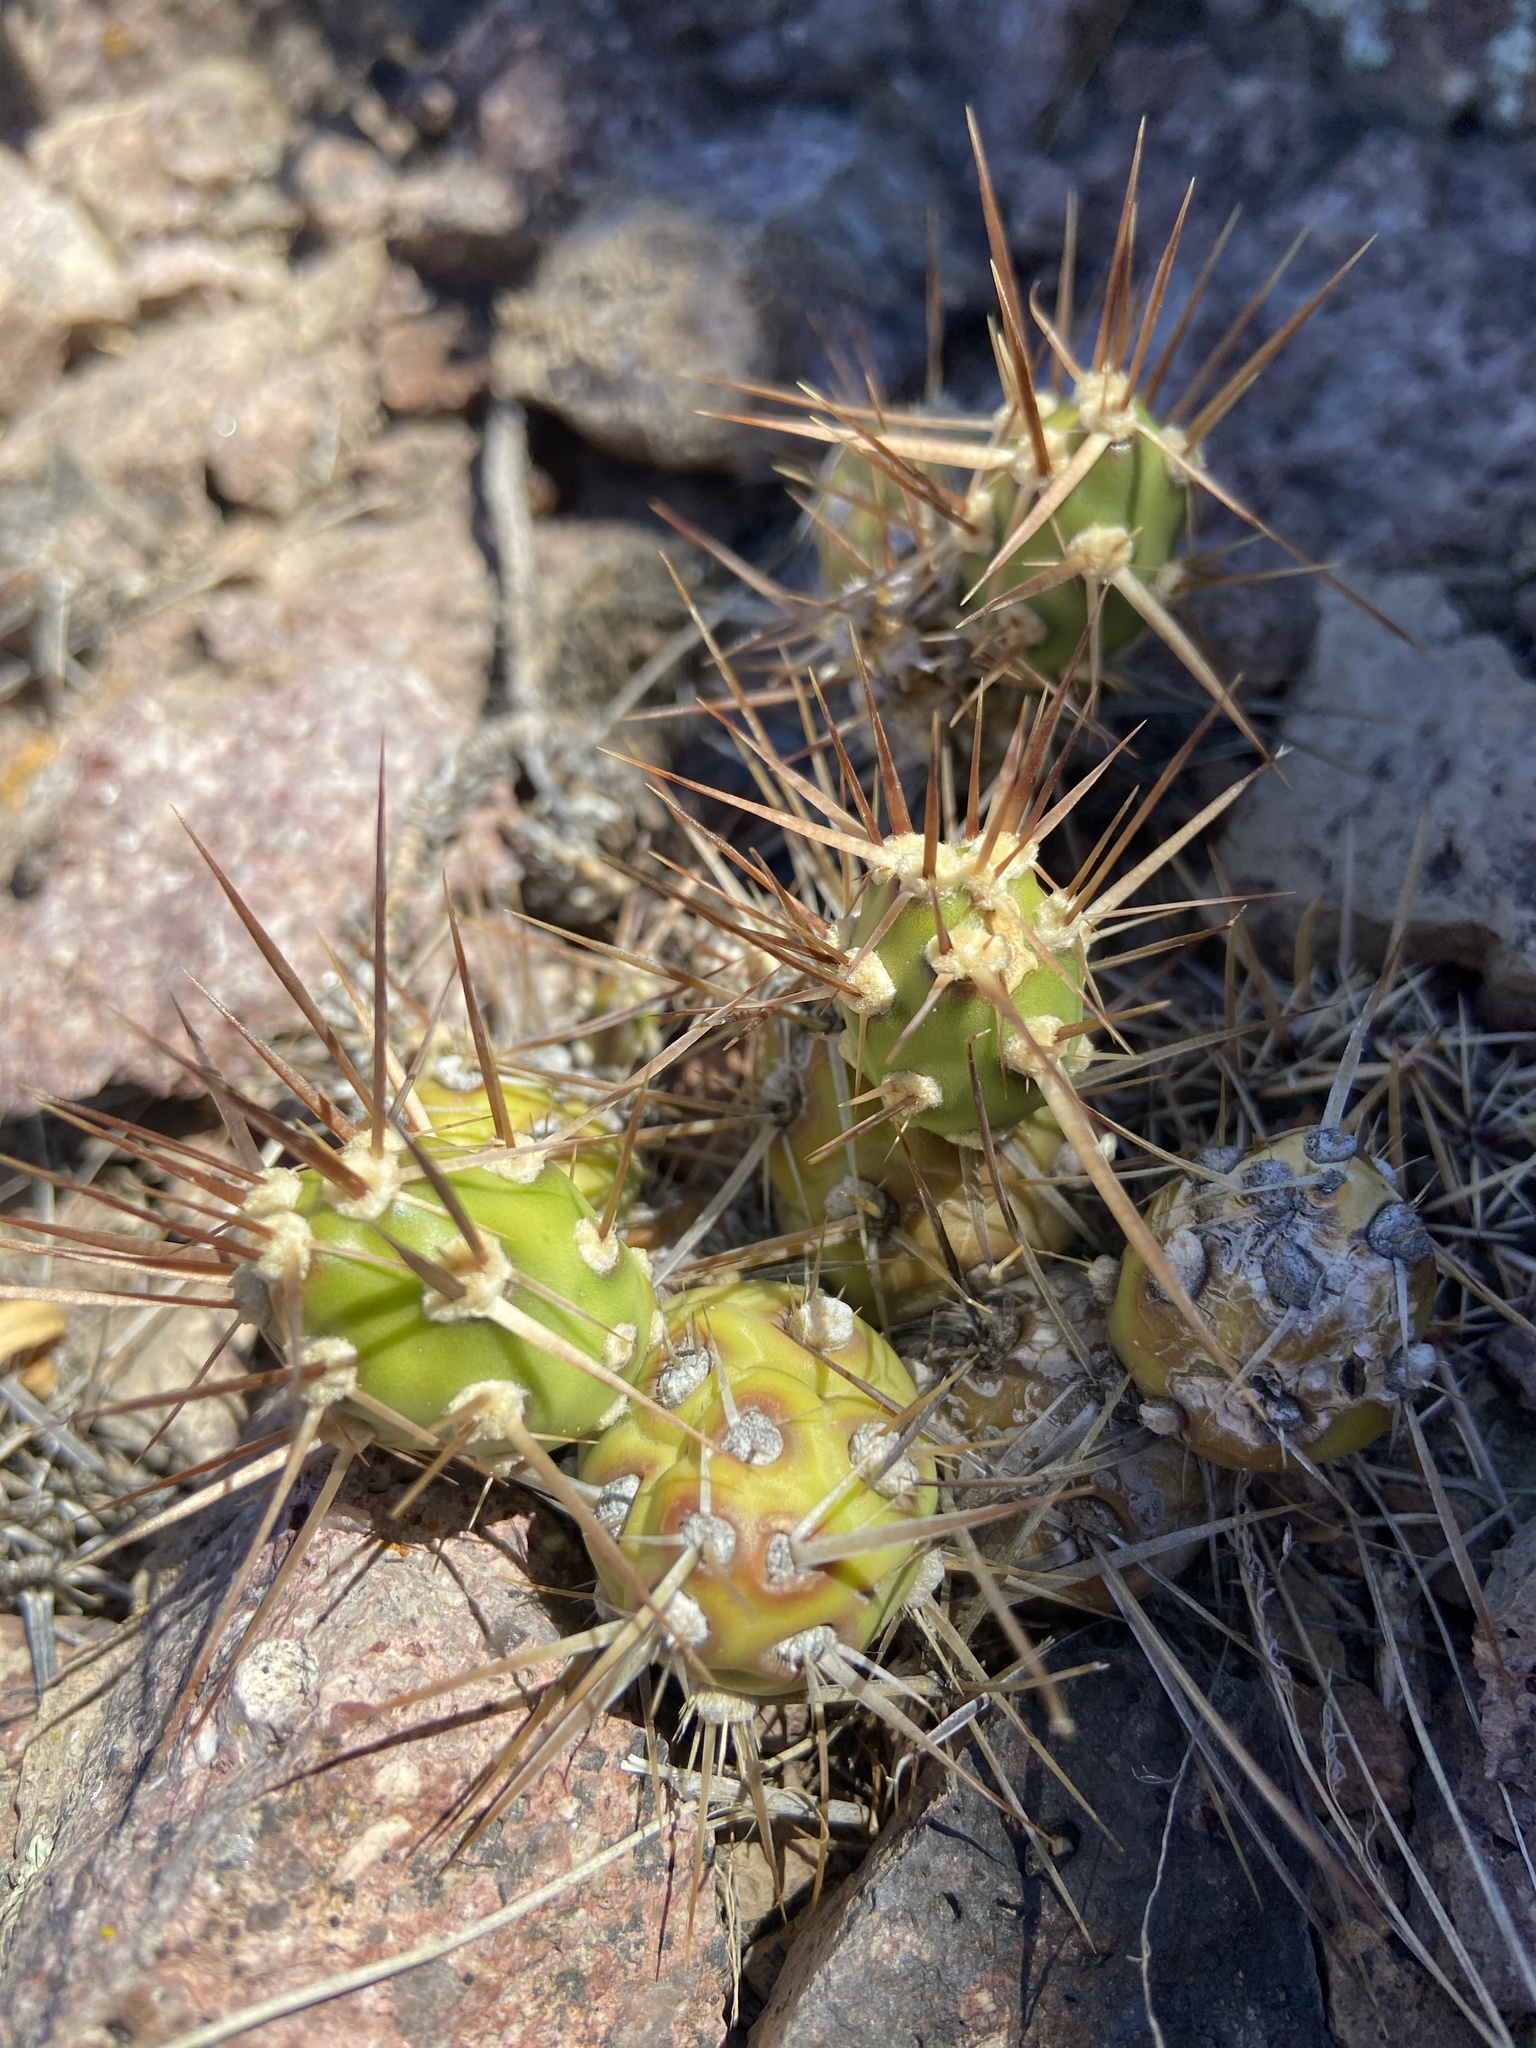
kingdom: Plantae
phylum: Tracheophyta
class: Magnoliopsida
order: Caryophyllales
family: Cactaceae
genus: Maihueniopsis
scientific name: Maihueniopsis darwinii
